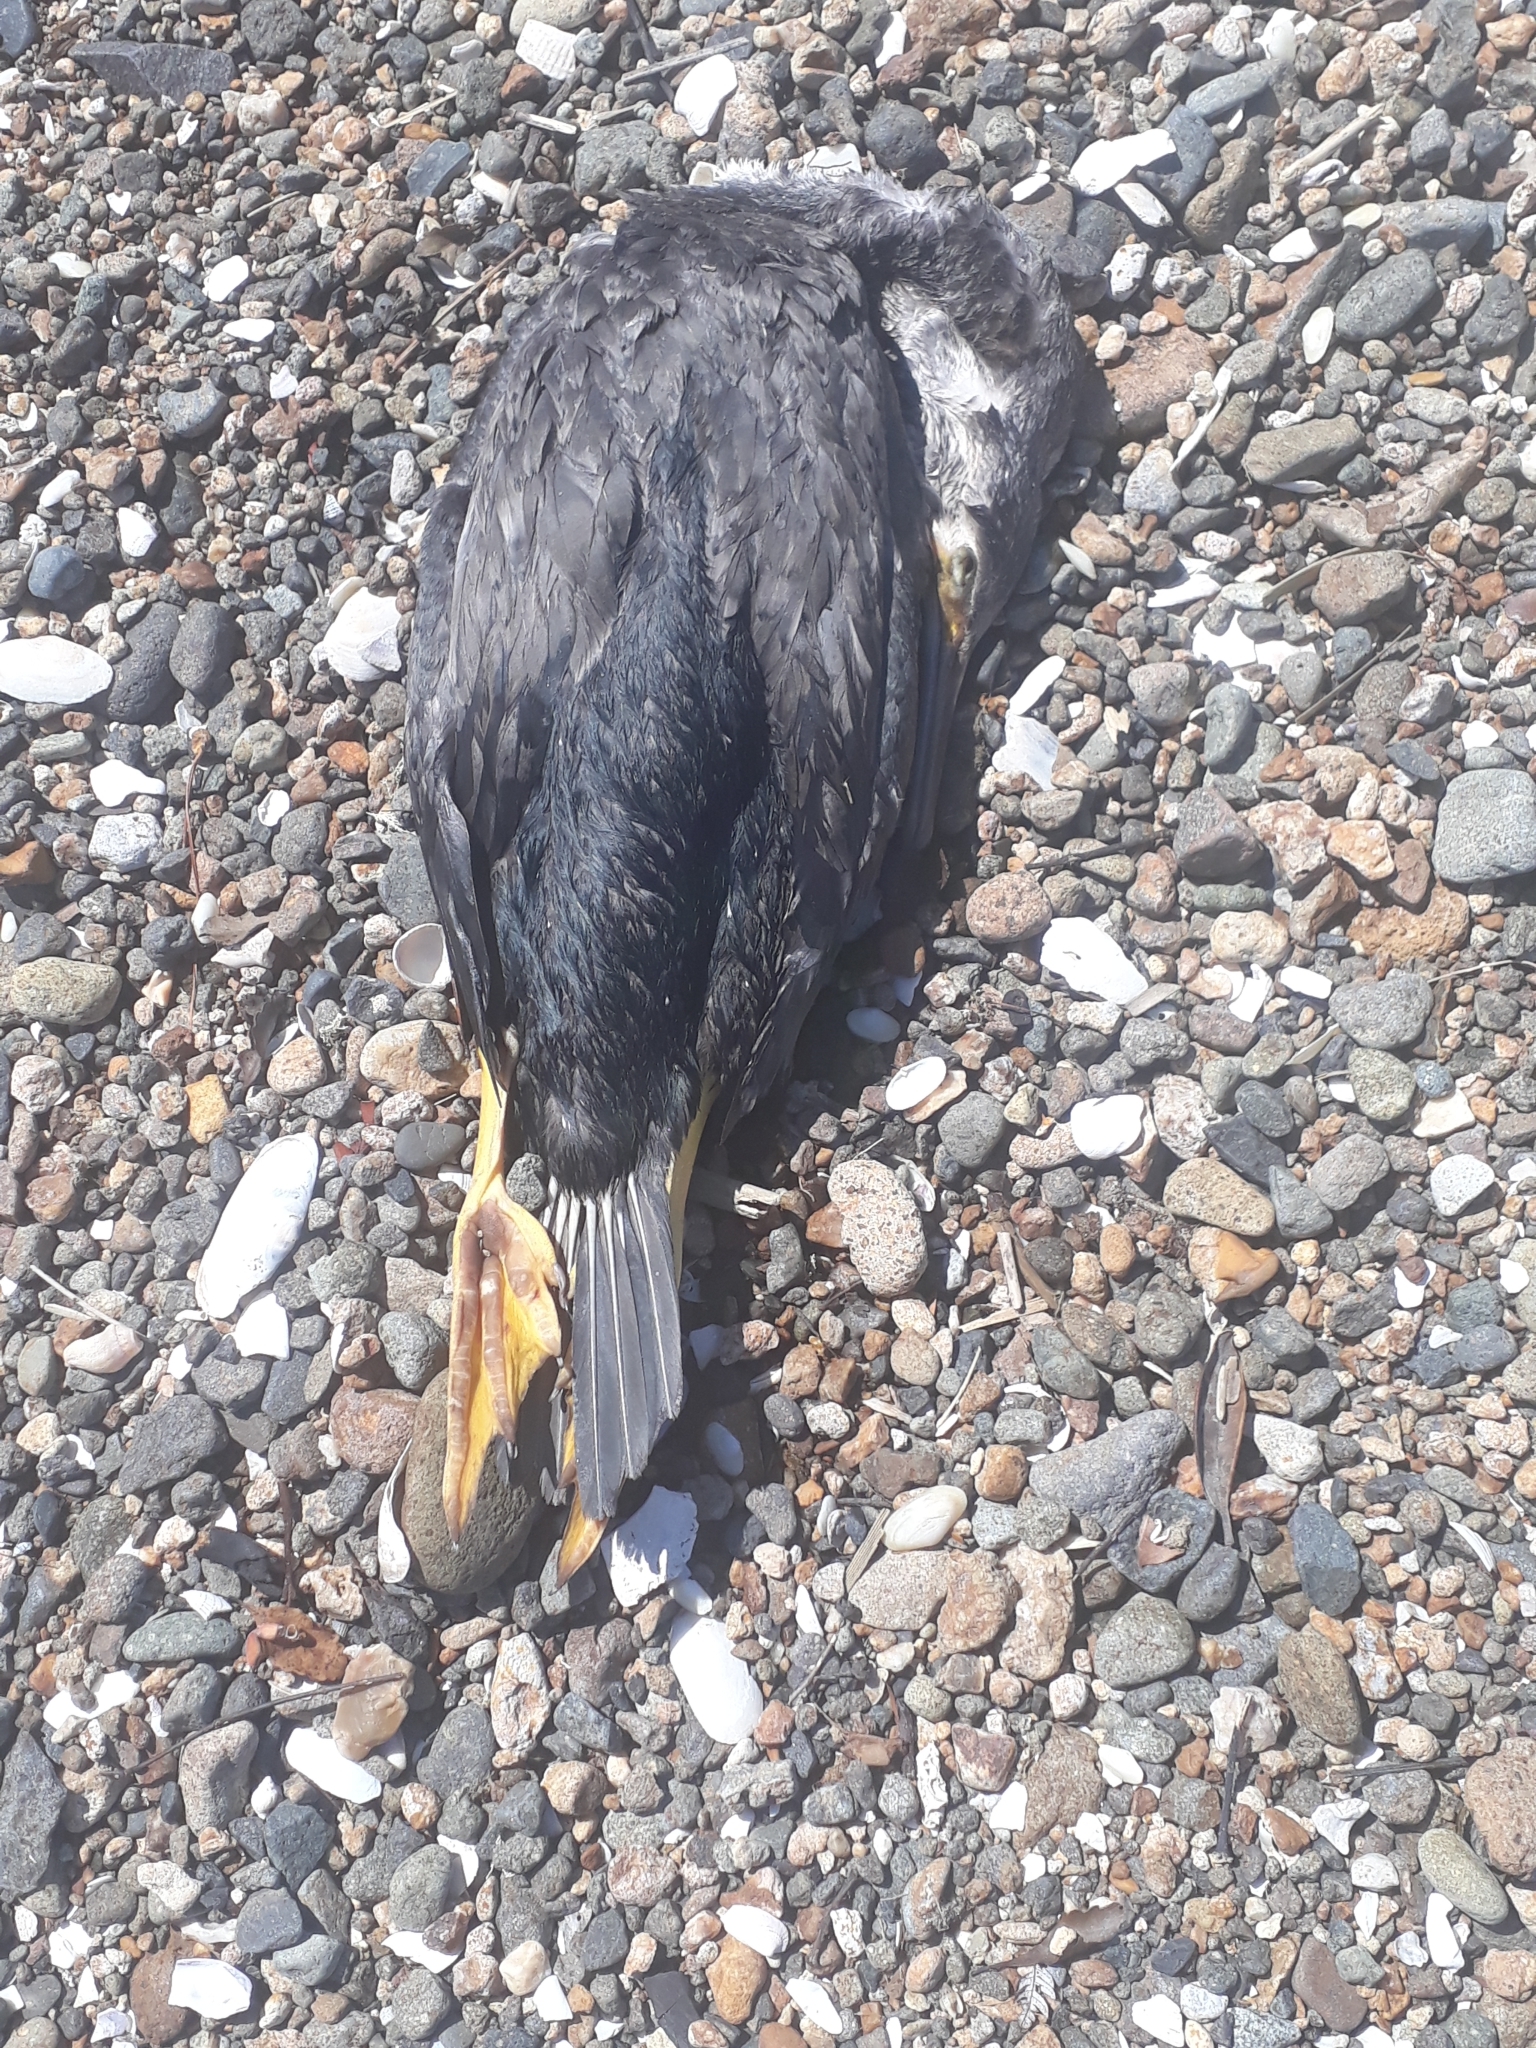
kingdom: Animalia
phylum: Chordata
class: Aves
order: Suliformes
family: Phalacrocoracidae
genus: Phalacrocorax
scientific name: Phalacrocorax punctatus
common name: Spotted shag
